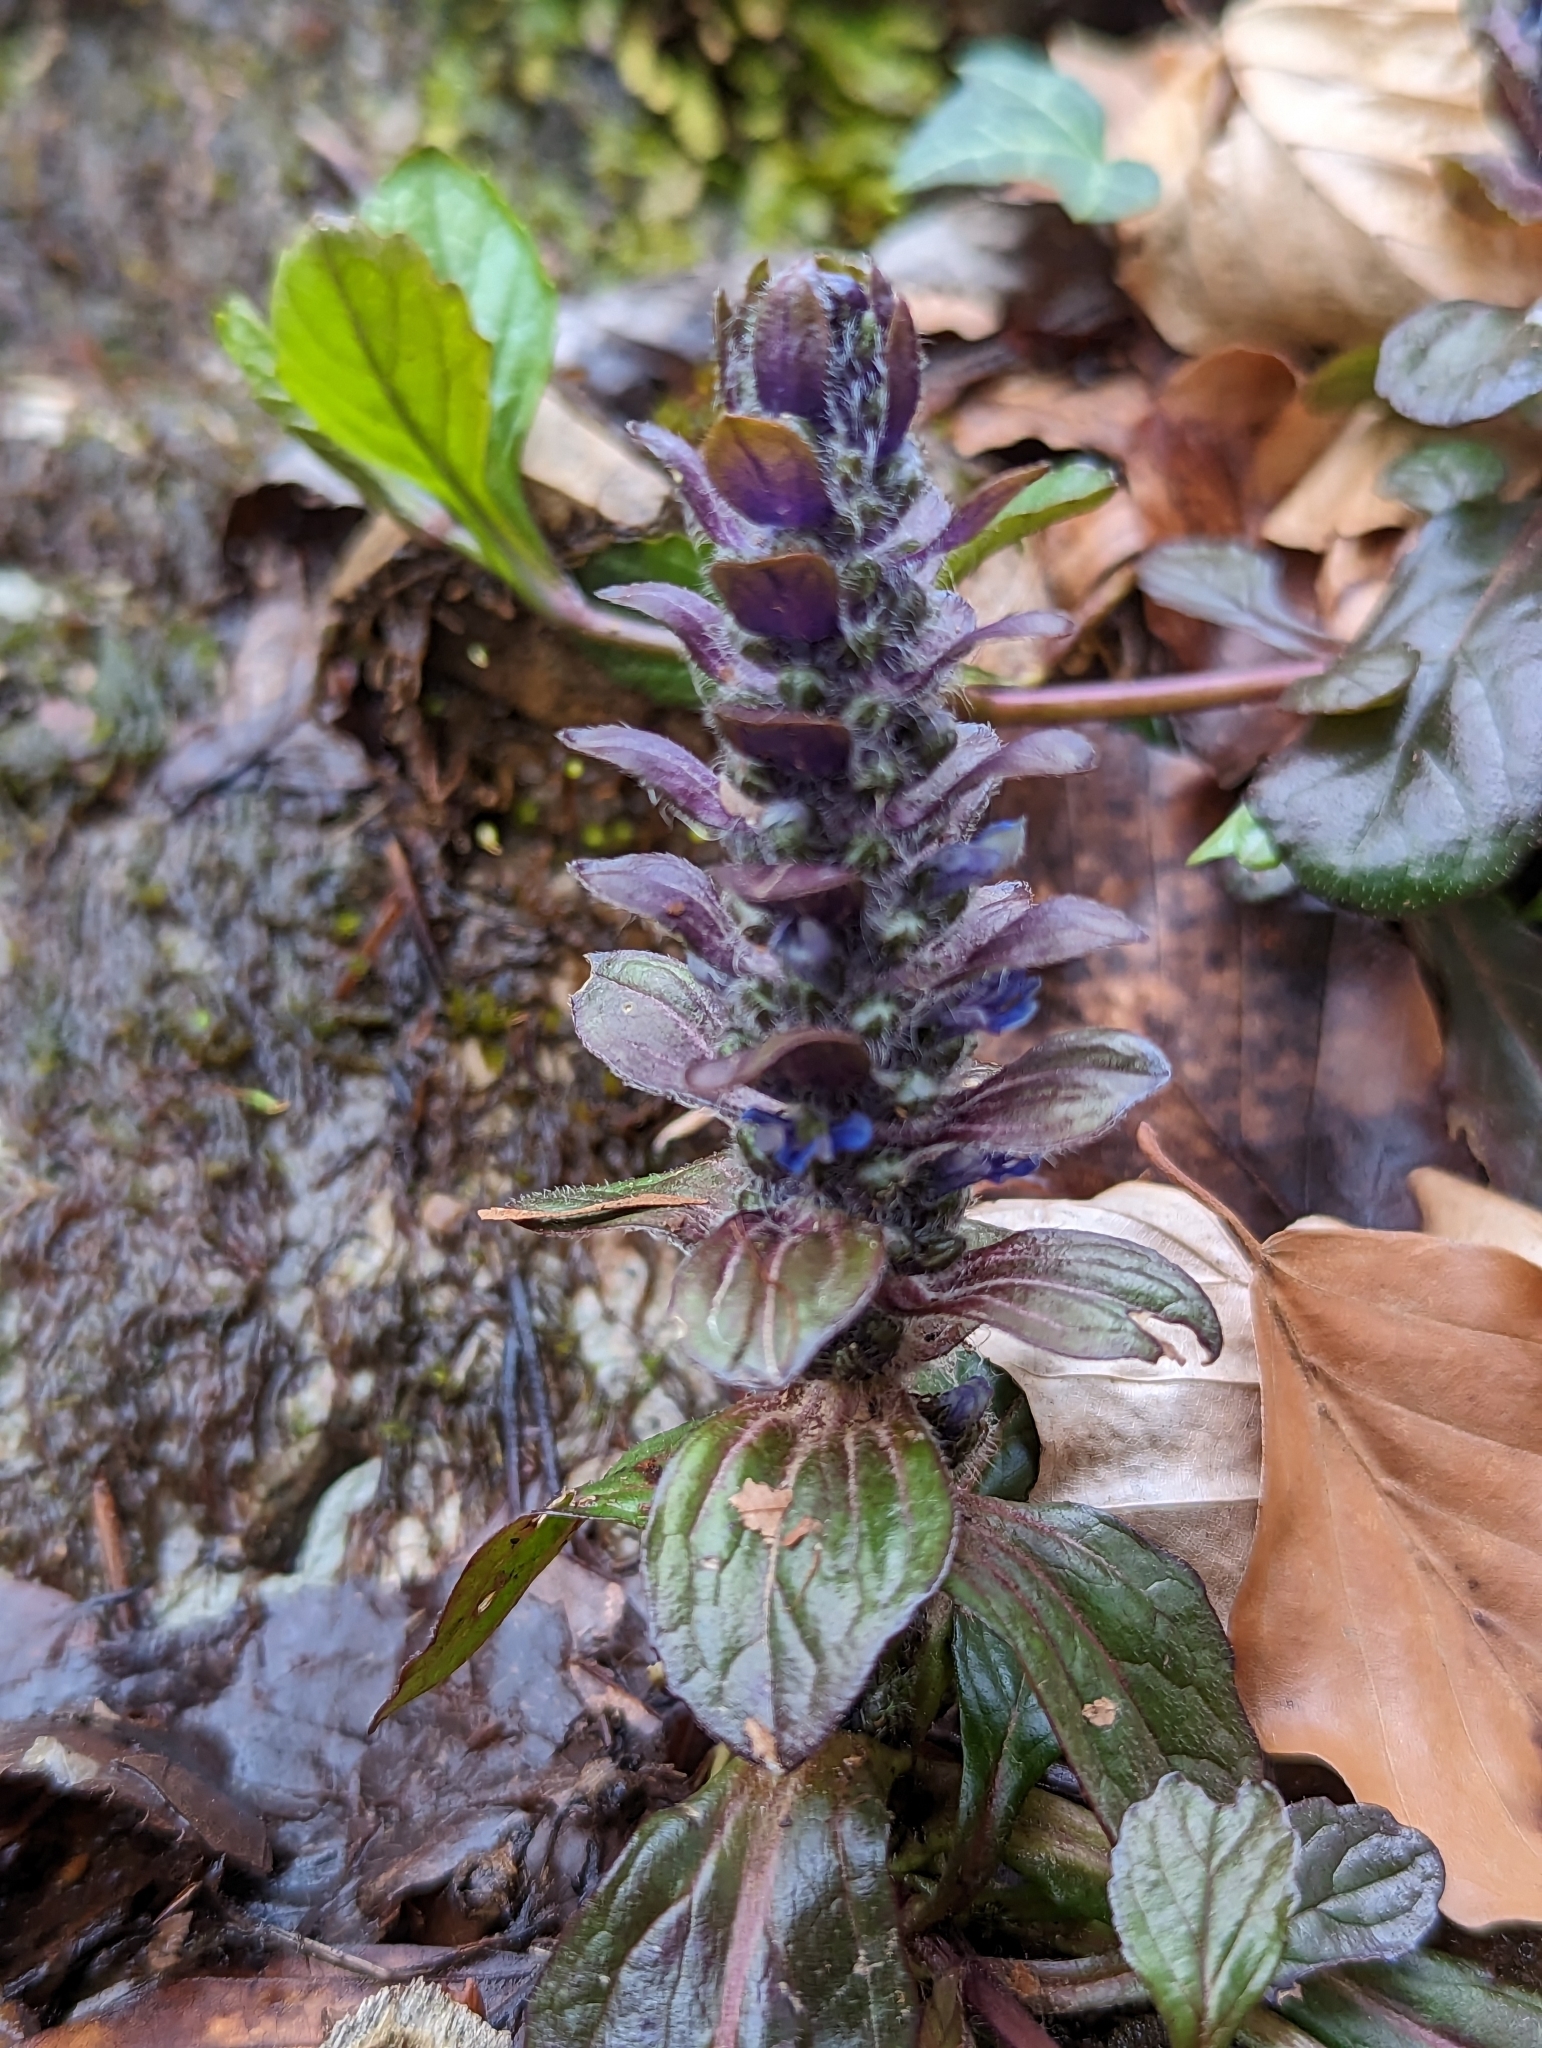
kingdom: Plantae
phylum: Tracheophyta
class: Magnoliopsida
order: Lamiales
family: Lamiaceae
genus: Ajuga
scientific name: Ajuga reptans
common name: Bugle
